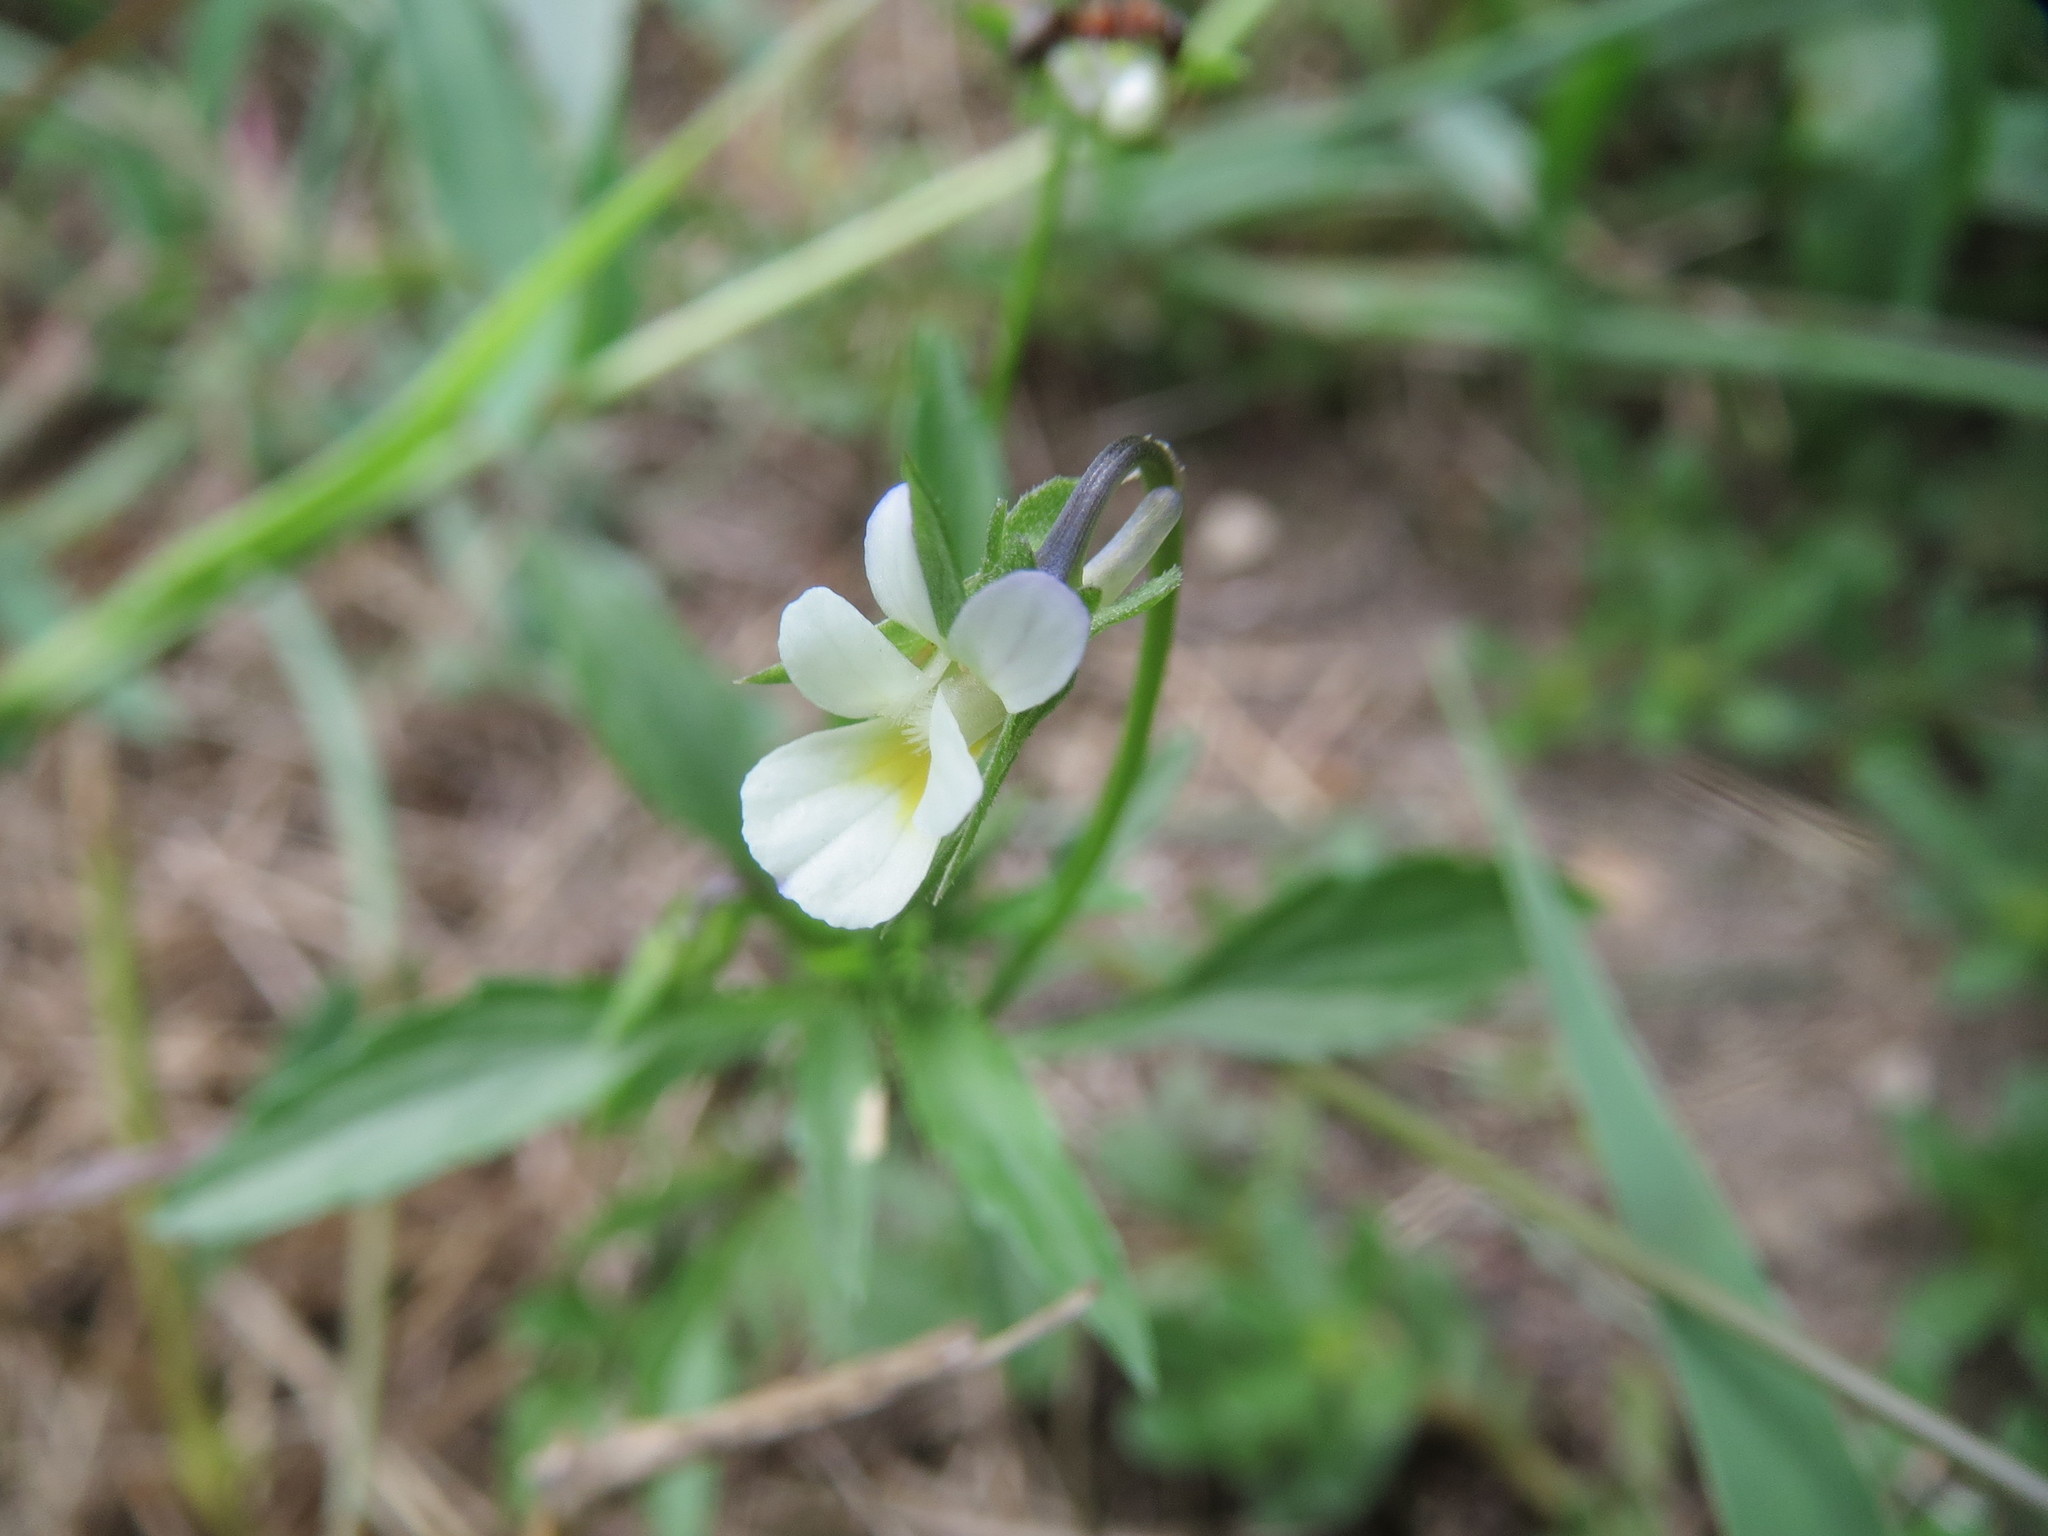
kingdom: Plantae
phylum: Tracheophyta
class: Magnoliopsida
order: Malpighiales
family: Violaceae
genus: Viola
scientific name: Viola arvensis
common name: Field pansy
